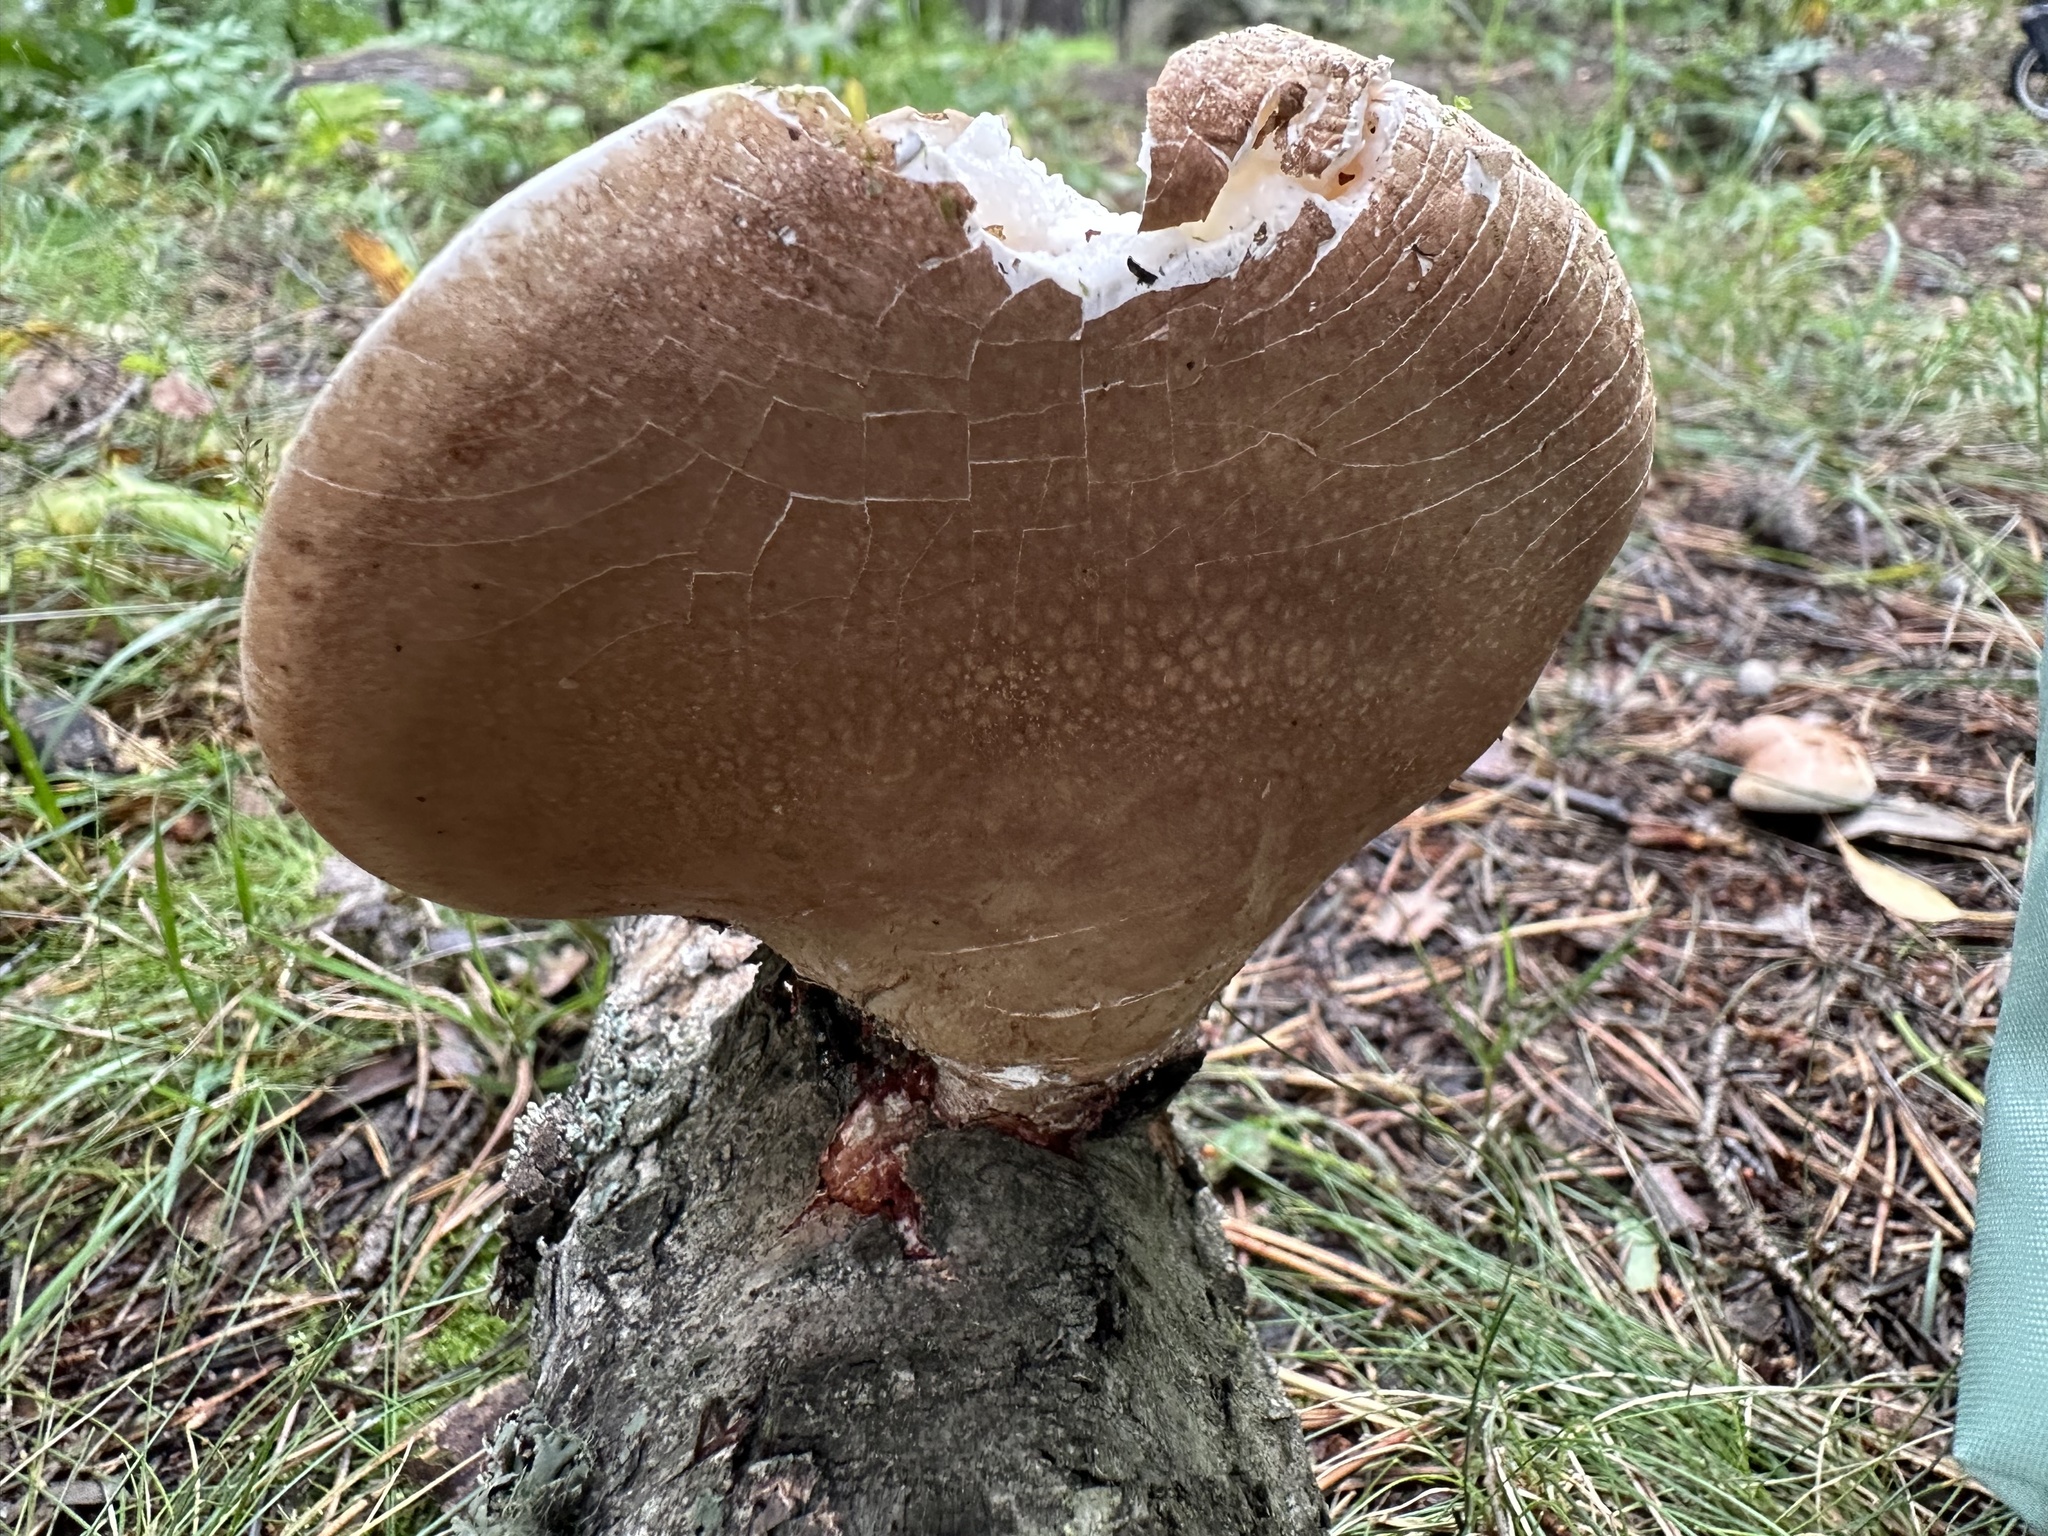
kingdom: Fungi
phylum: Basidiomycota
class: Agaricomycetes
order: Polyporales
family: Fomitopsidaceae
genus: Fomitopsis
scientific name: Fomitopsis betulina
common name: Birch polypore
